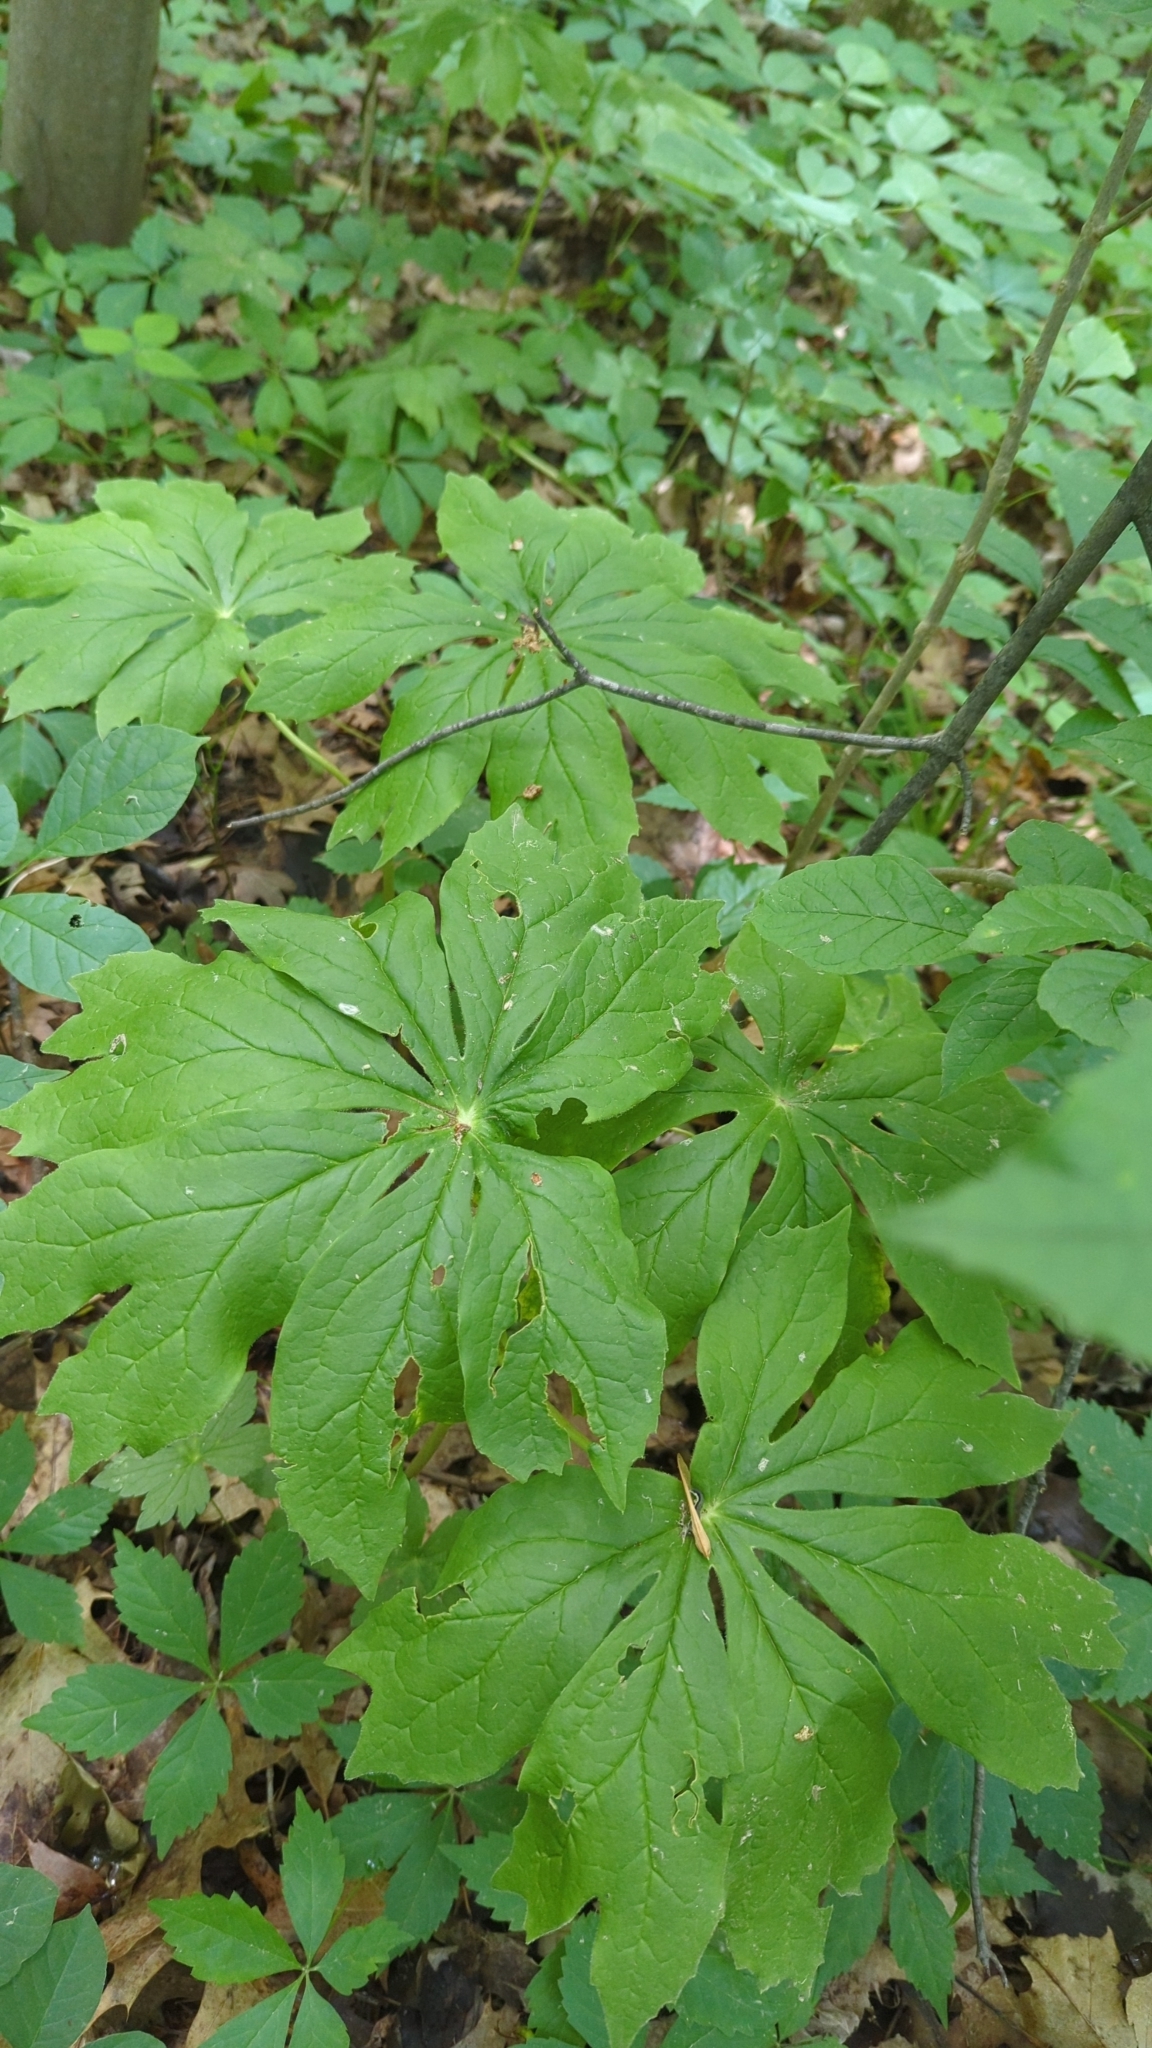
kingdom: Plantae
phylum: Tracheophyta
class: Magnoliopsida
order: Ranunculales
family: Berberidaceae
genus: Podophyllum
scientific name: Podophyllum peltatum
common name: Wild mandrake
